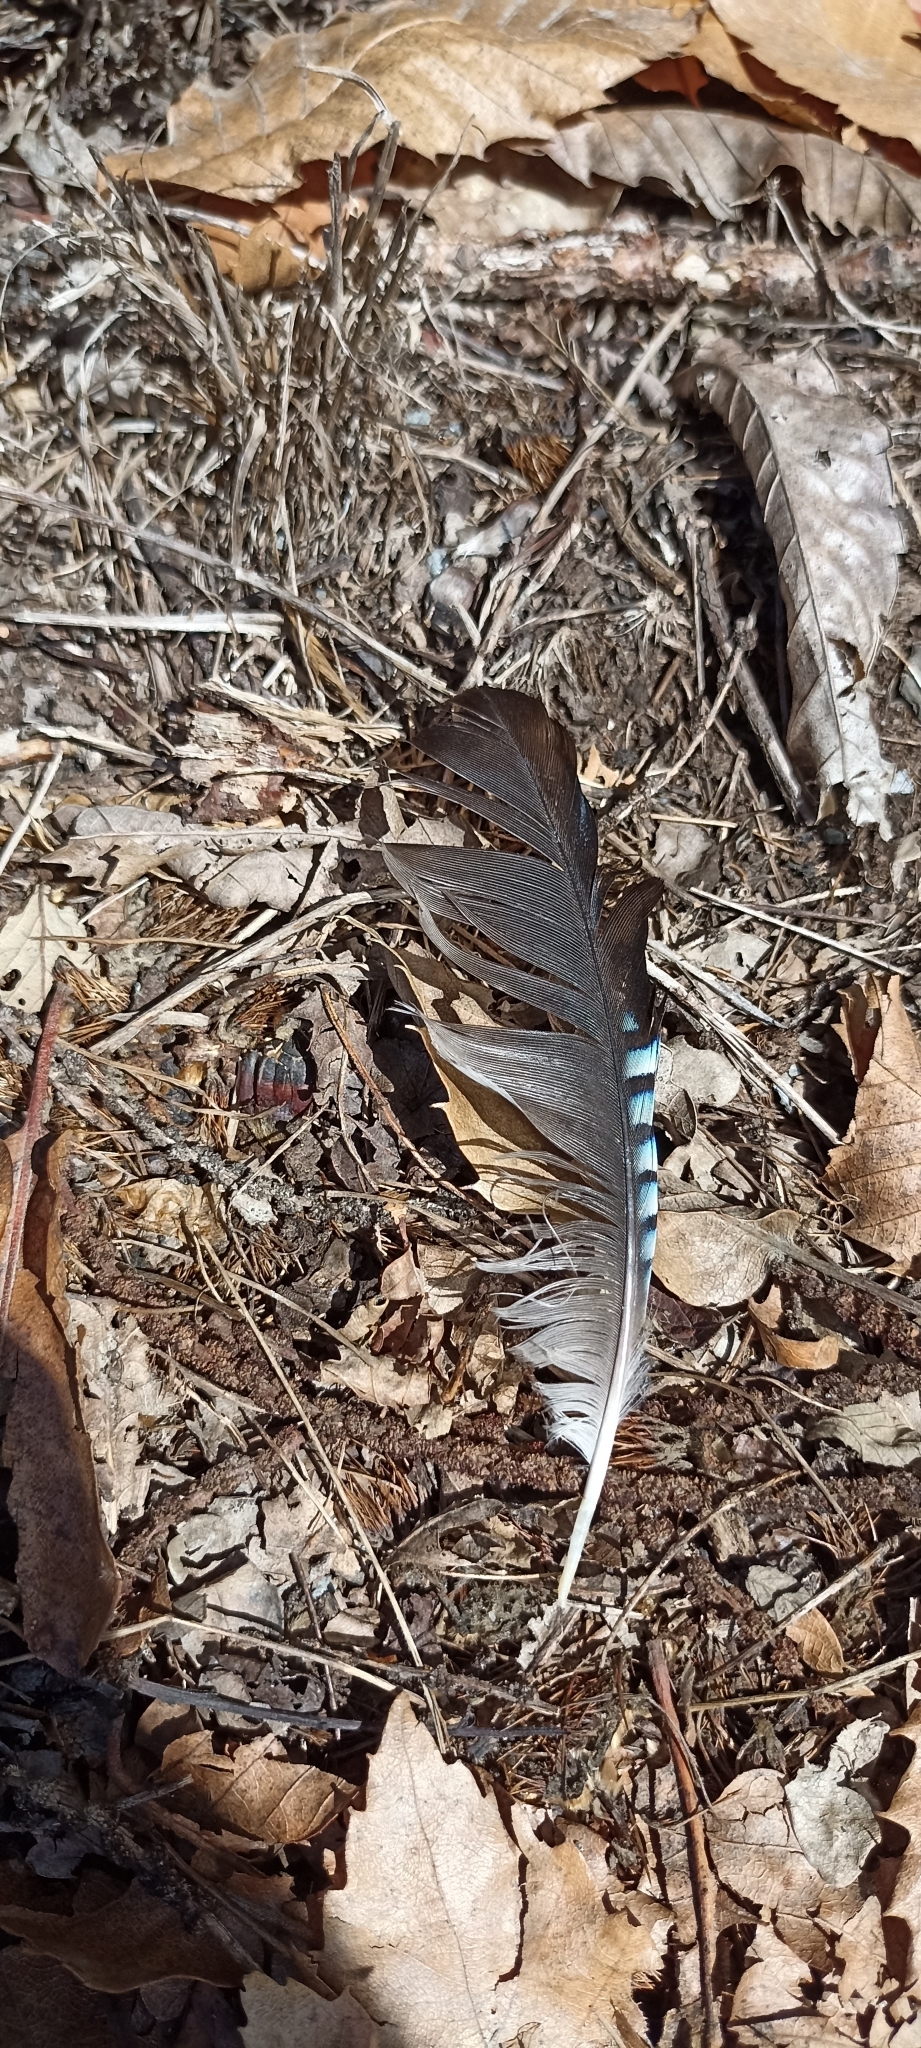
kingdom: Animalia
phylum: Chordata
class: Aves
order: Passeriformes
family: Corvidae
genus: Garrulus
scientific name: Garrulus glandarius
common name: Eurasian jay
